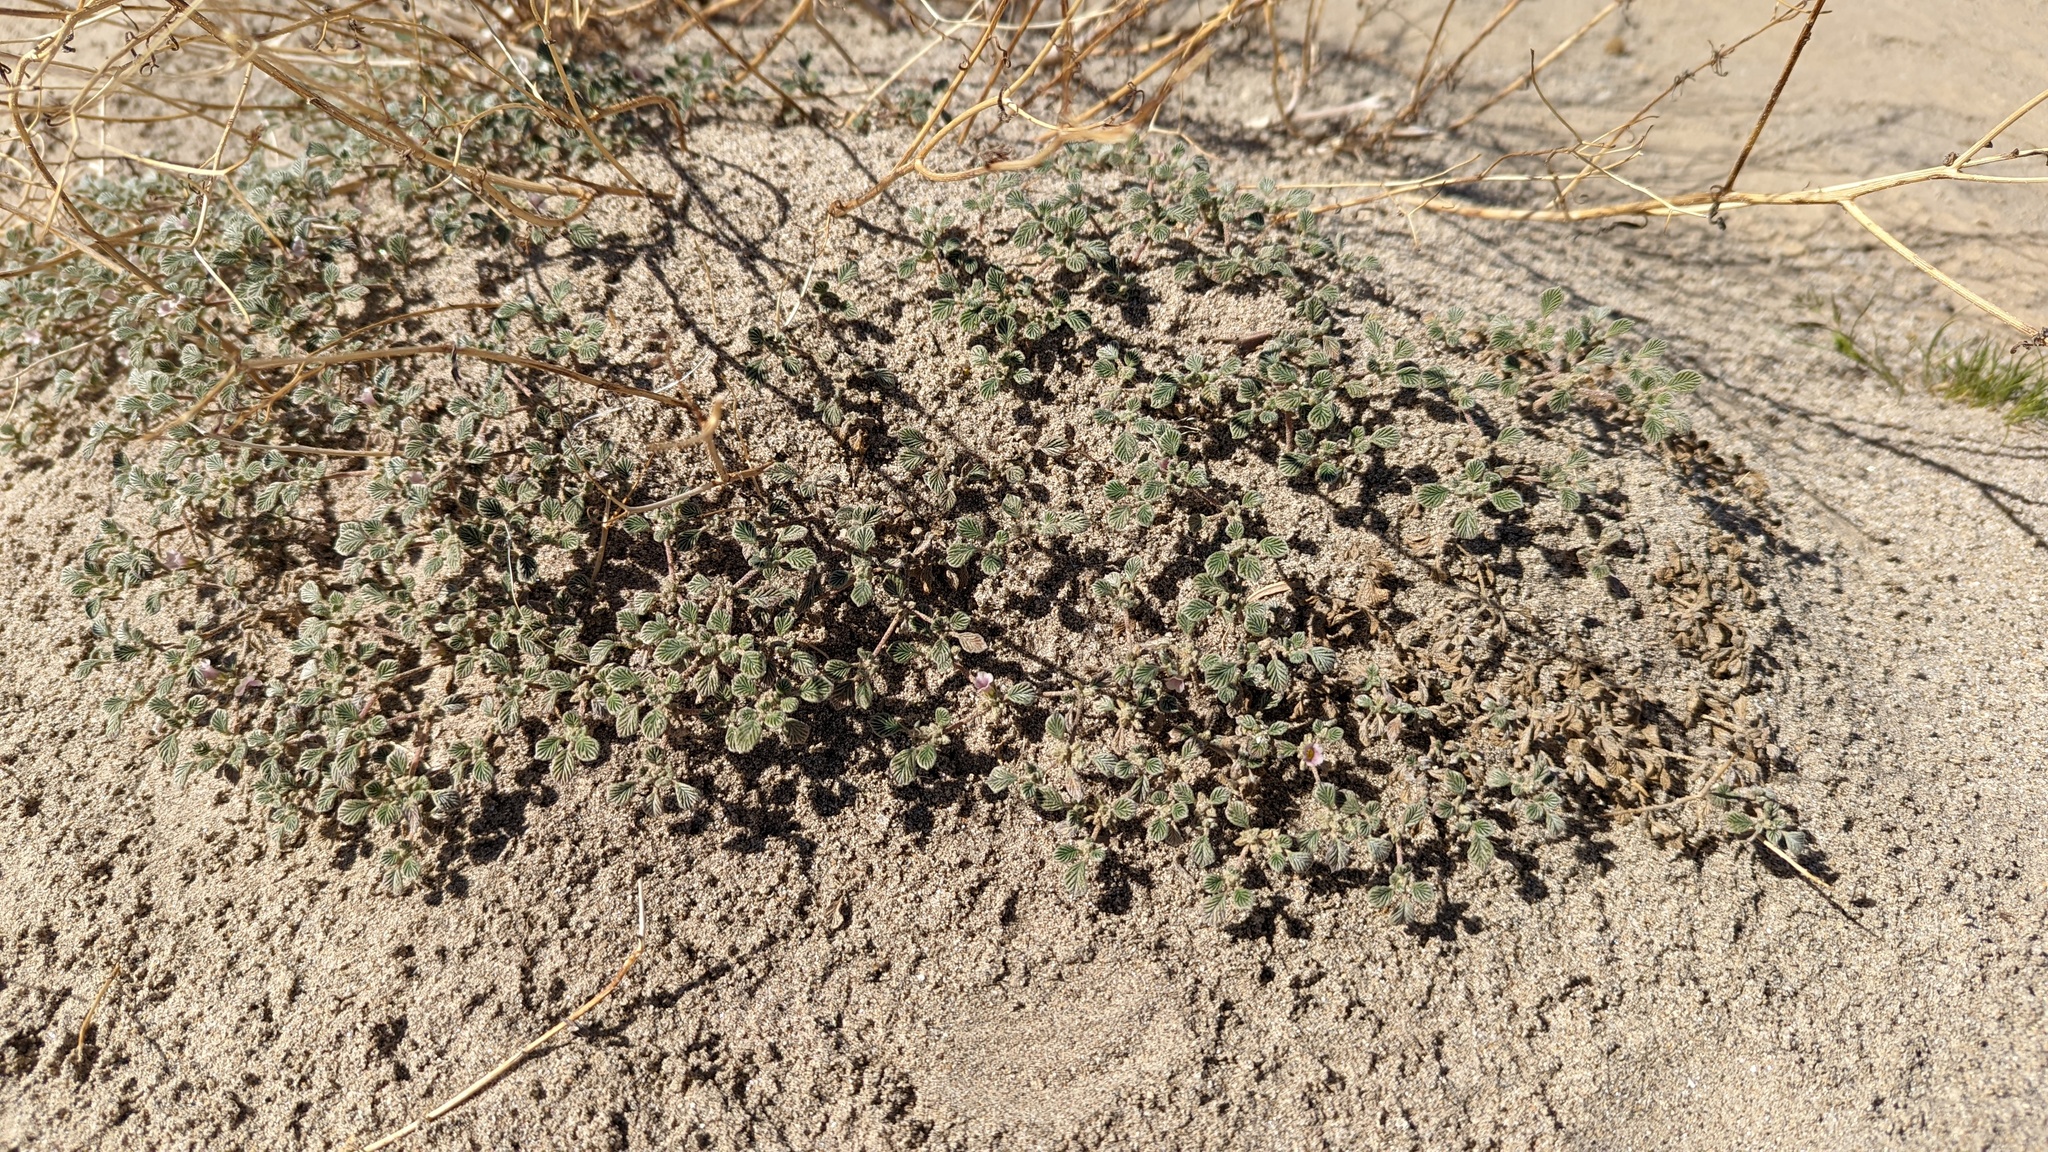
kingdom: Plantae
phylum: Tracheophyta
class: Magnoliopsida
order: Boraginales
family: Ehretiaceae
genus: Tiquilia
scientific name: Tiquilia plicata
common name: Fan-leaf tiquilia
